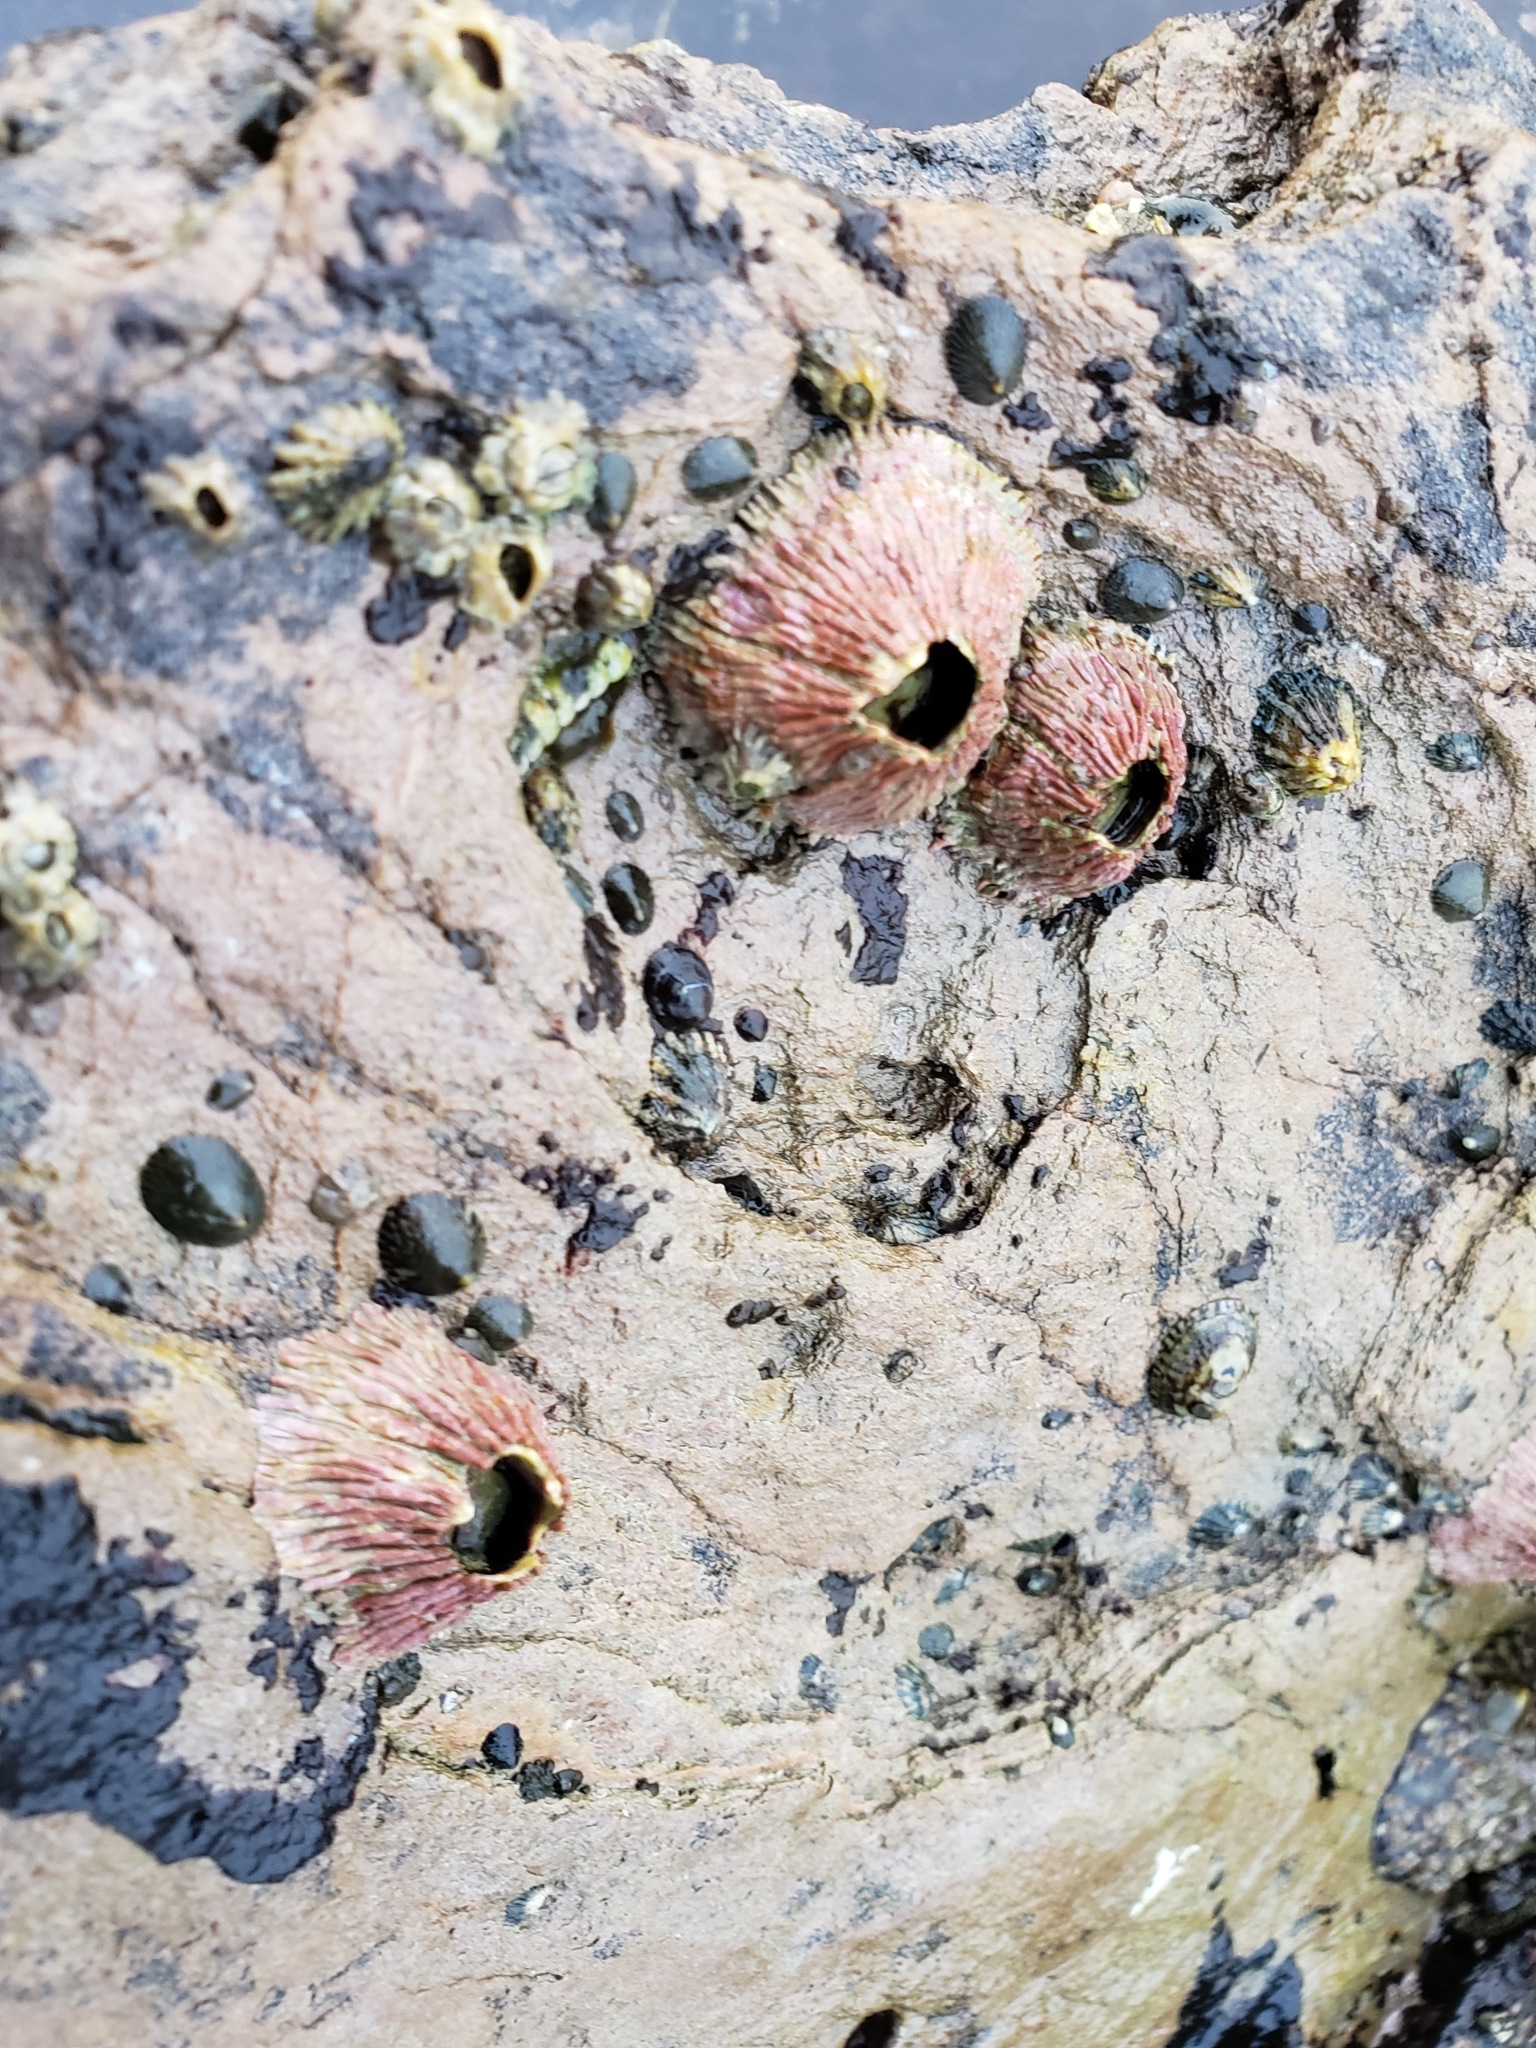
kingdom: Animalia
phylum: Arthropoda
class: Maxillopoda
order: Sessilia
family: Tetraclitidae
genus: Tetraclita
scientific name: Tetraclita rubescens
